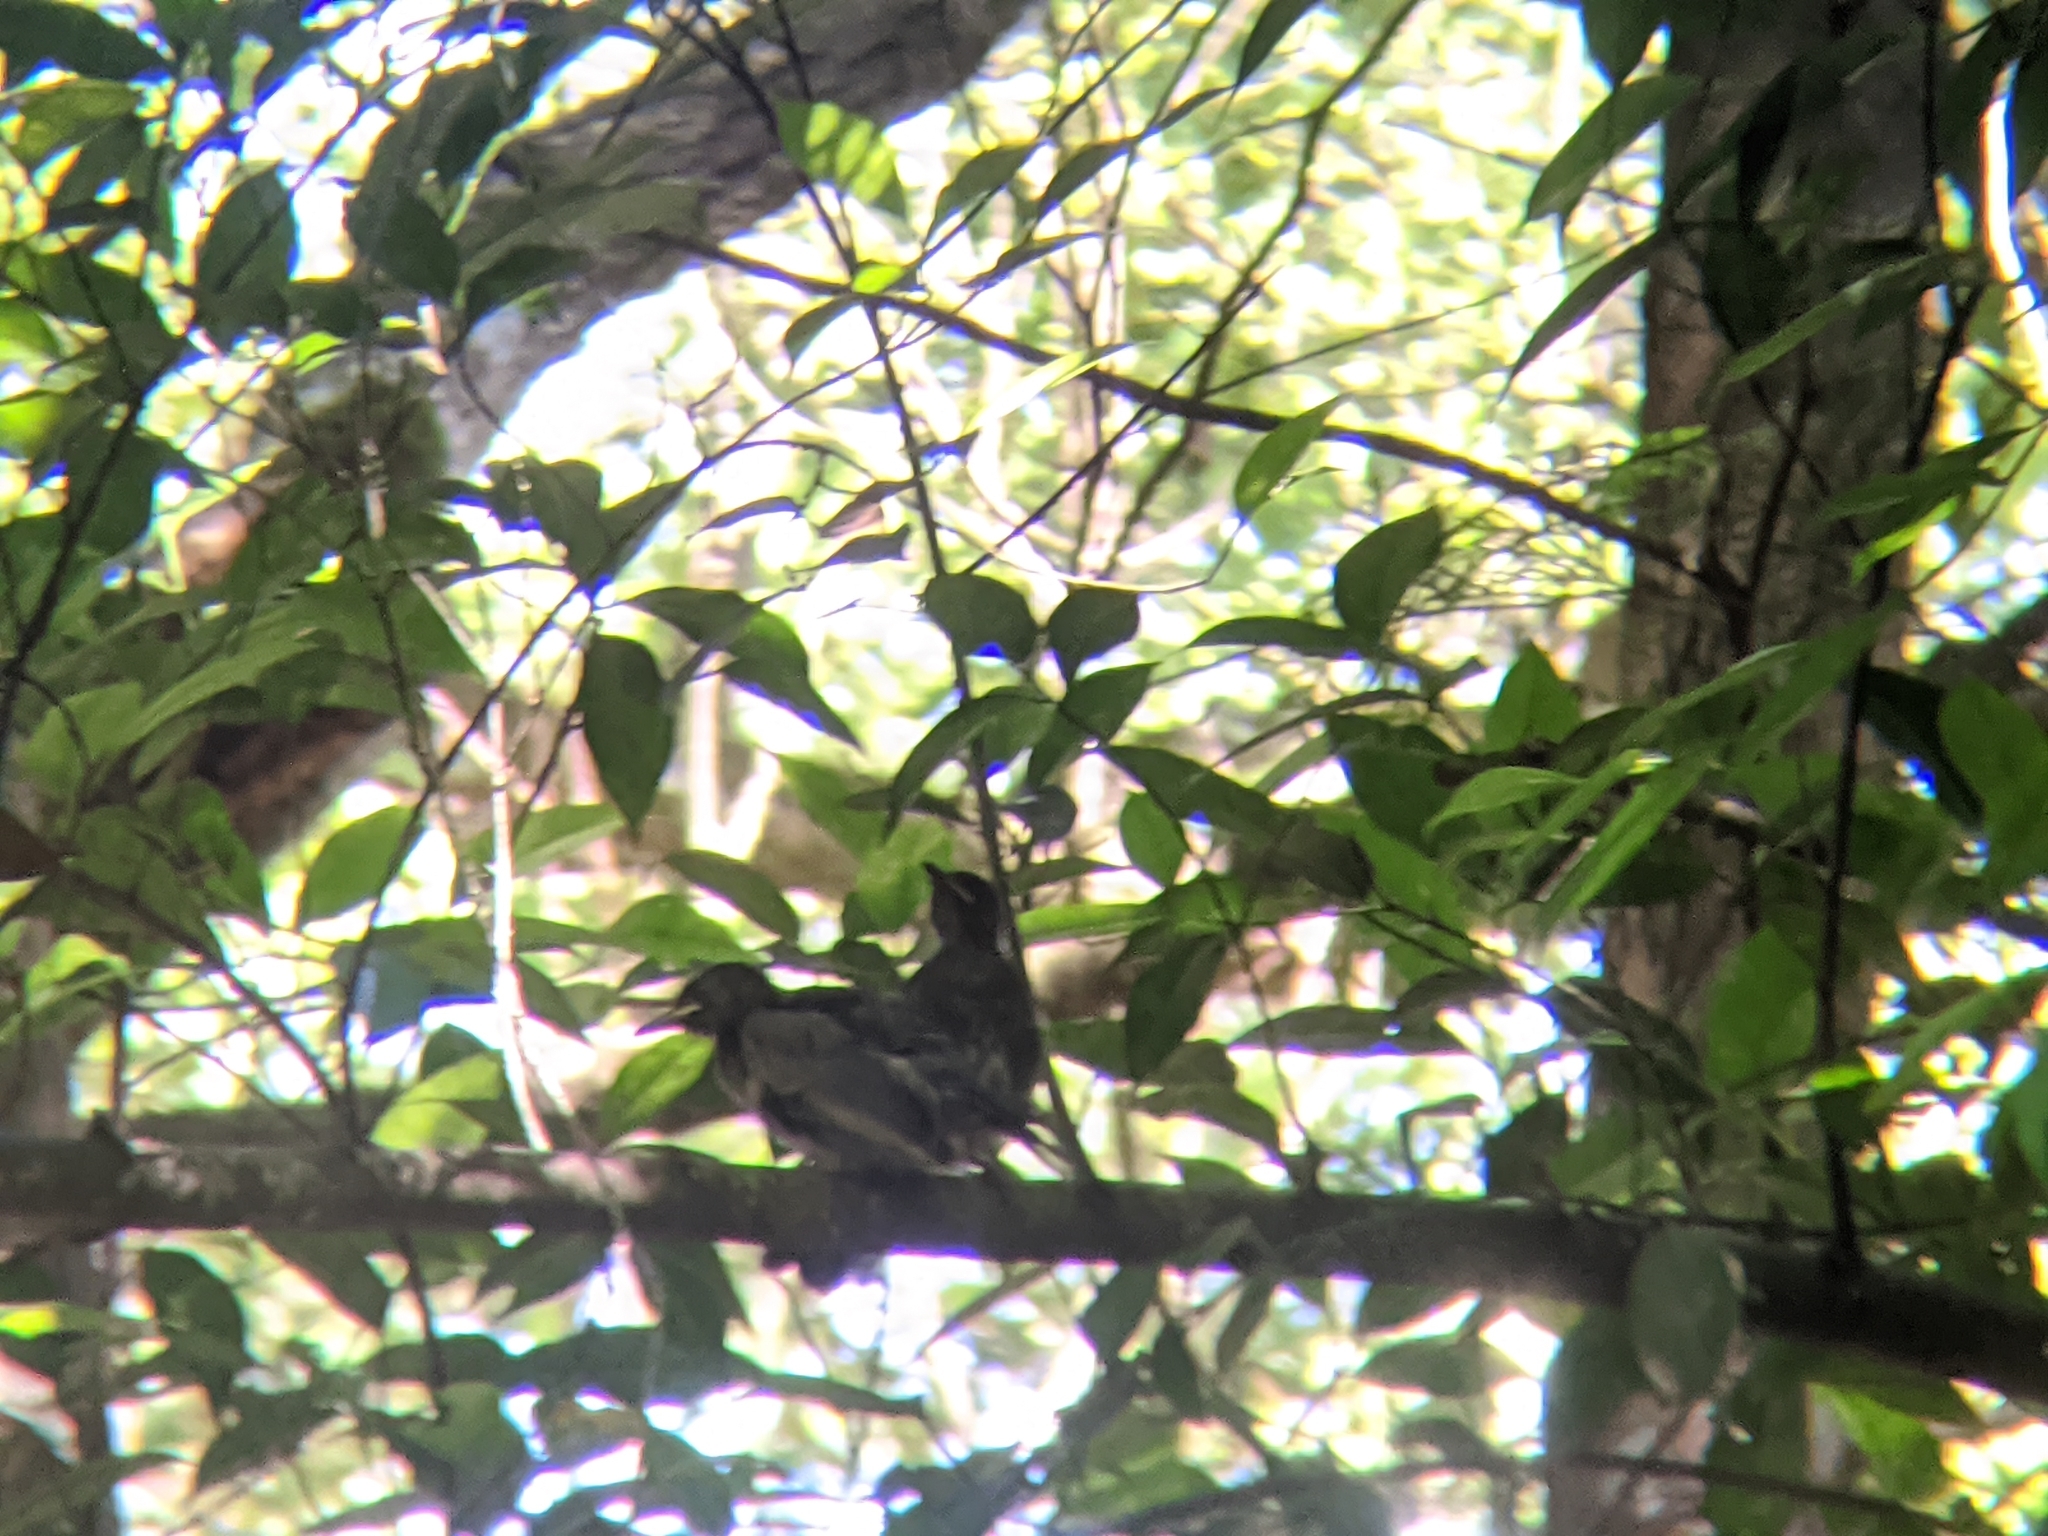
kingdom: Animalia
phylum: Chordata
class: Aves
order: Passeriformes
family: Pycnonotidae
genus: Hypsipetes
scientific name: Hypsipetes leucocephalus
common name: Black bulbul
